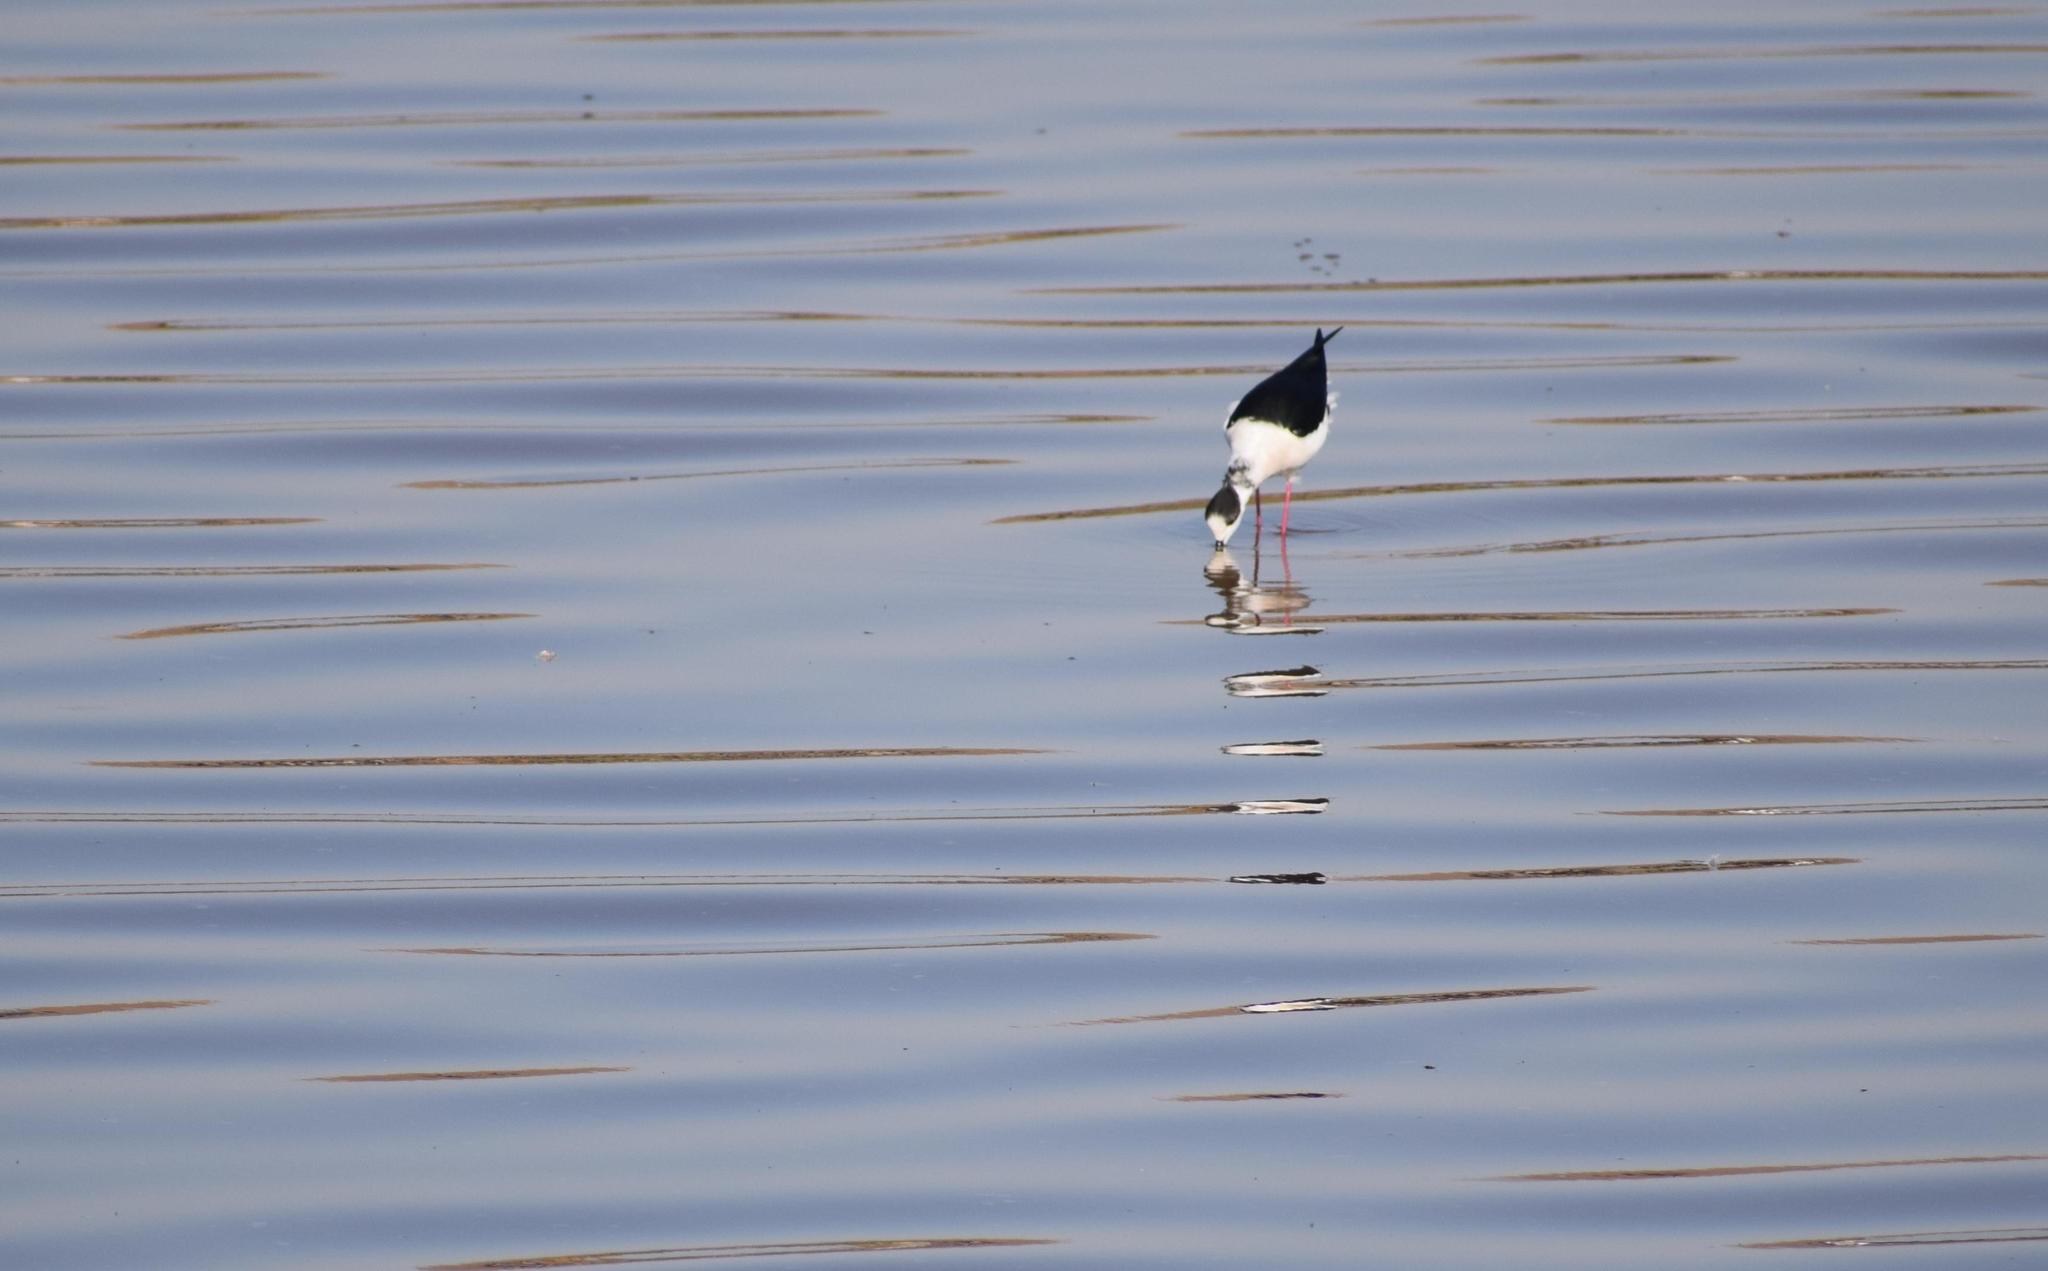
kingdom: Animalia
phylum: Chordata
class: Aves
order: Charadriiformes
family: Recurvirostridae
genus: Himantopus
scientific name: Himantopus himantopus
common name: Black-winged stilt
